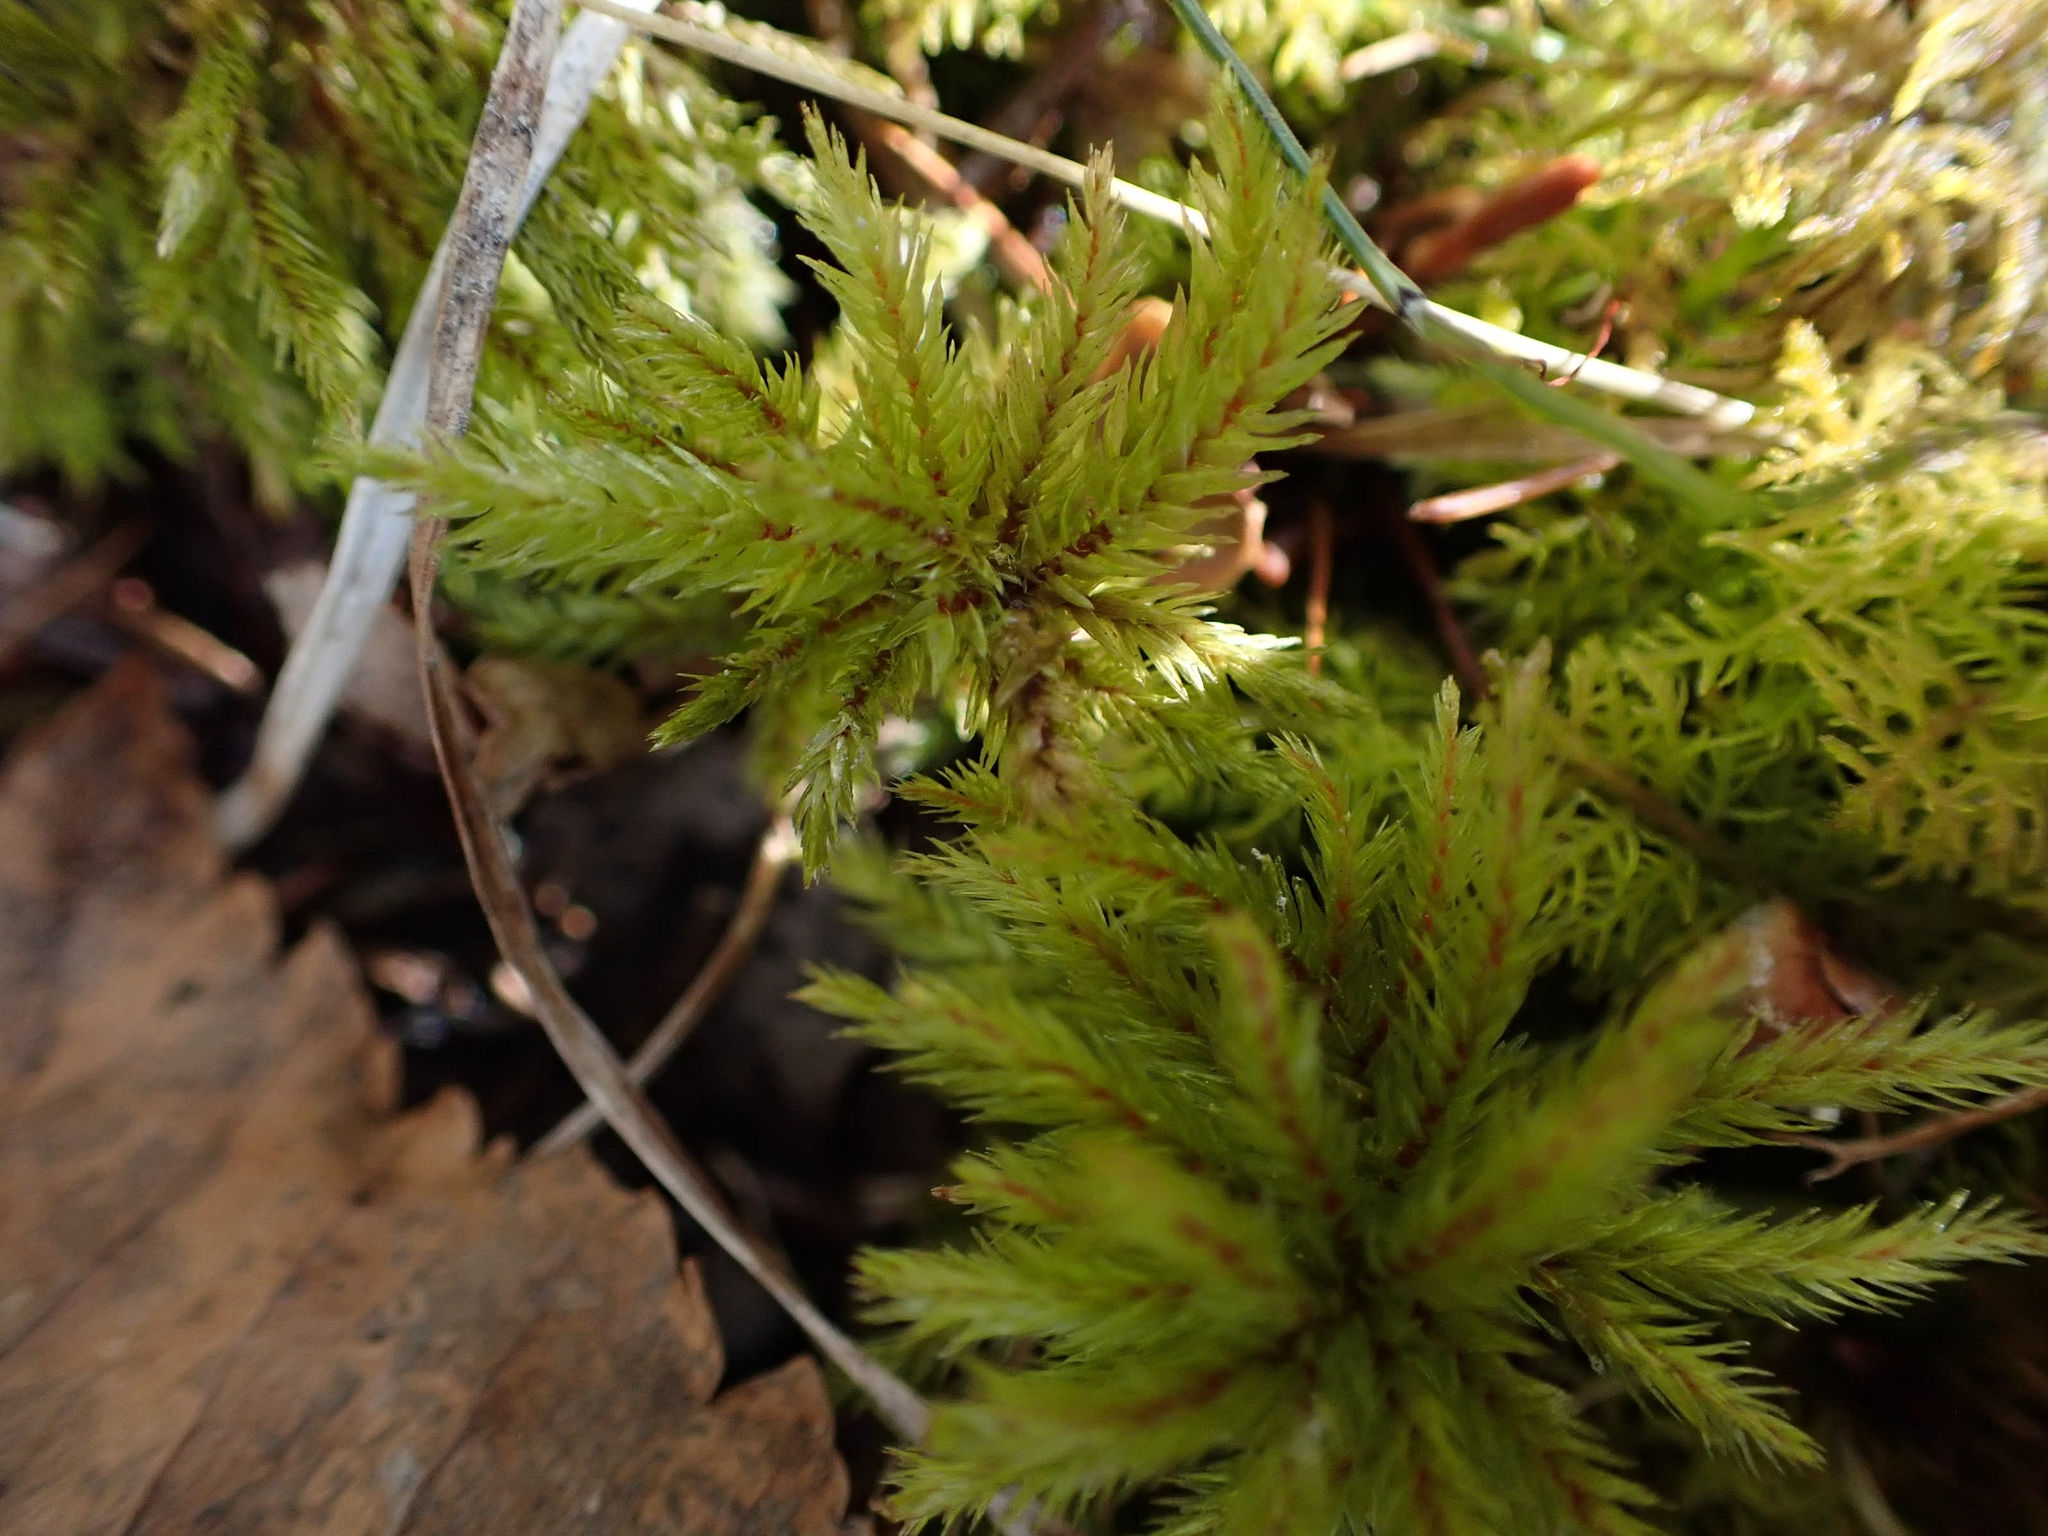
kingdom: Plantae
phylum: Bryophyta
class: Bryopsida
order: Hypnales
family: Climaciaceae
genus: Climacium
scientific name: Climacium dendroides
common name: Northern tree moss
